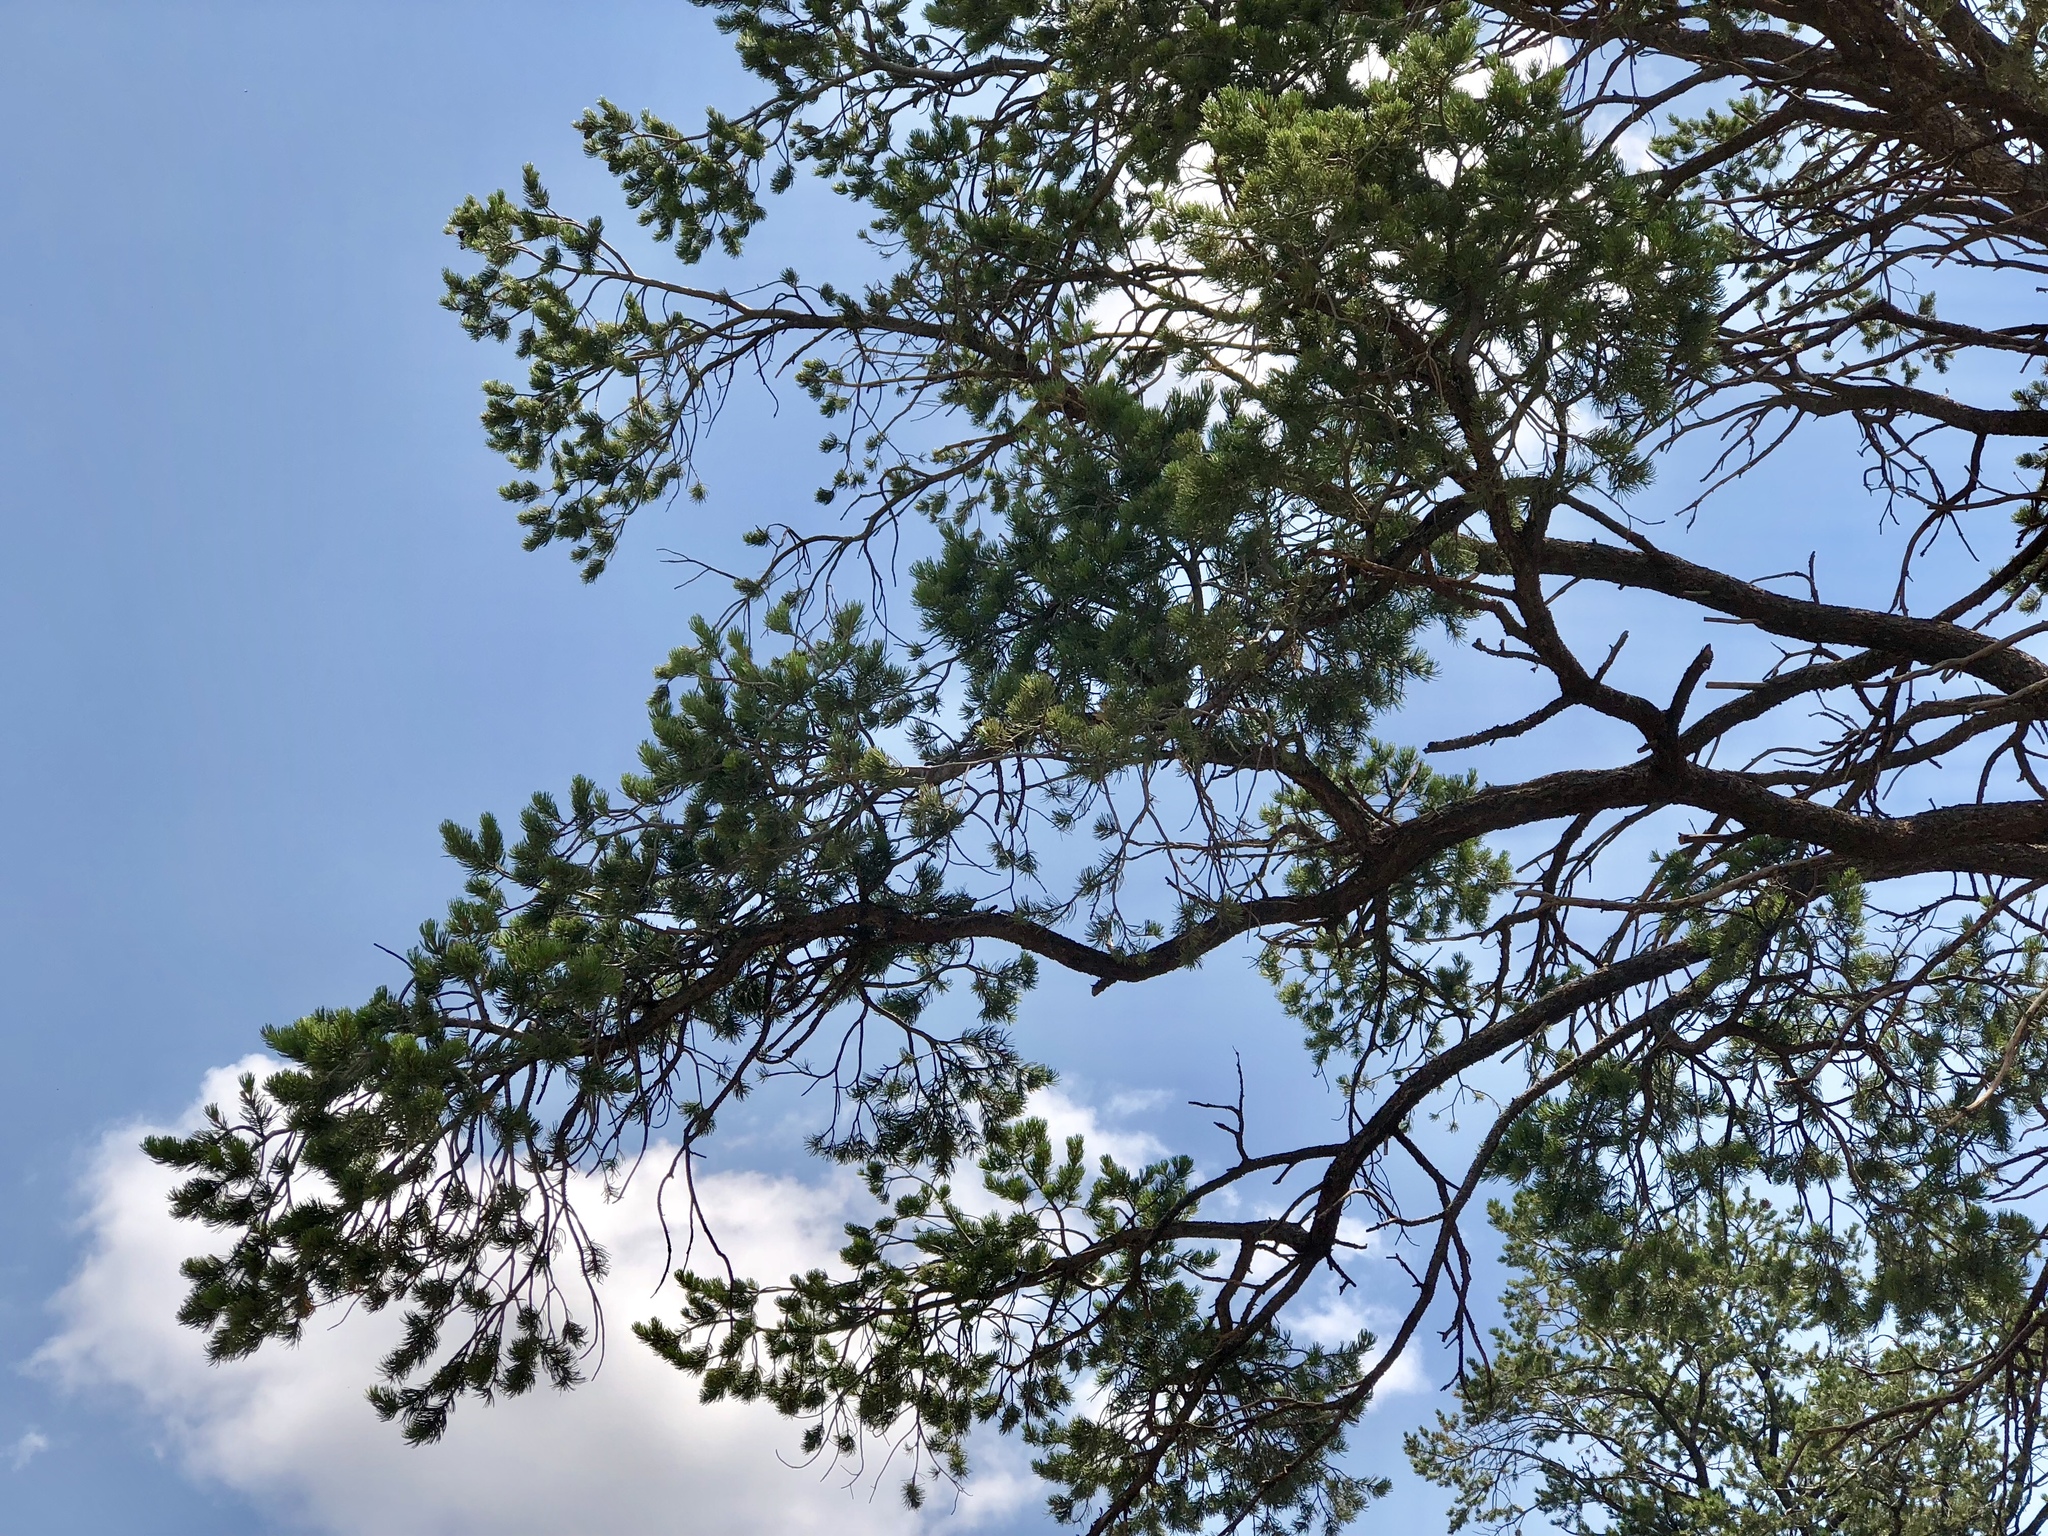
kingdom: Plantae
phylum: Tracheophyta
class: Pinopsida
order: Pinales
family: Pinaceae
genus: Pinus
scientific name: Pinus edulis
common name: Colorado pinyon
